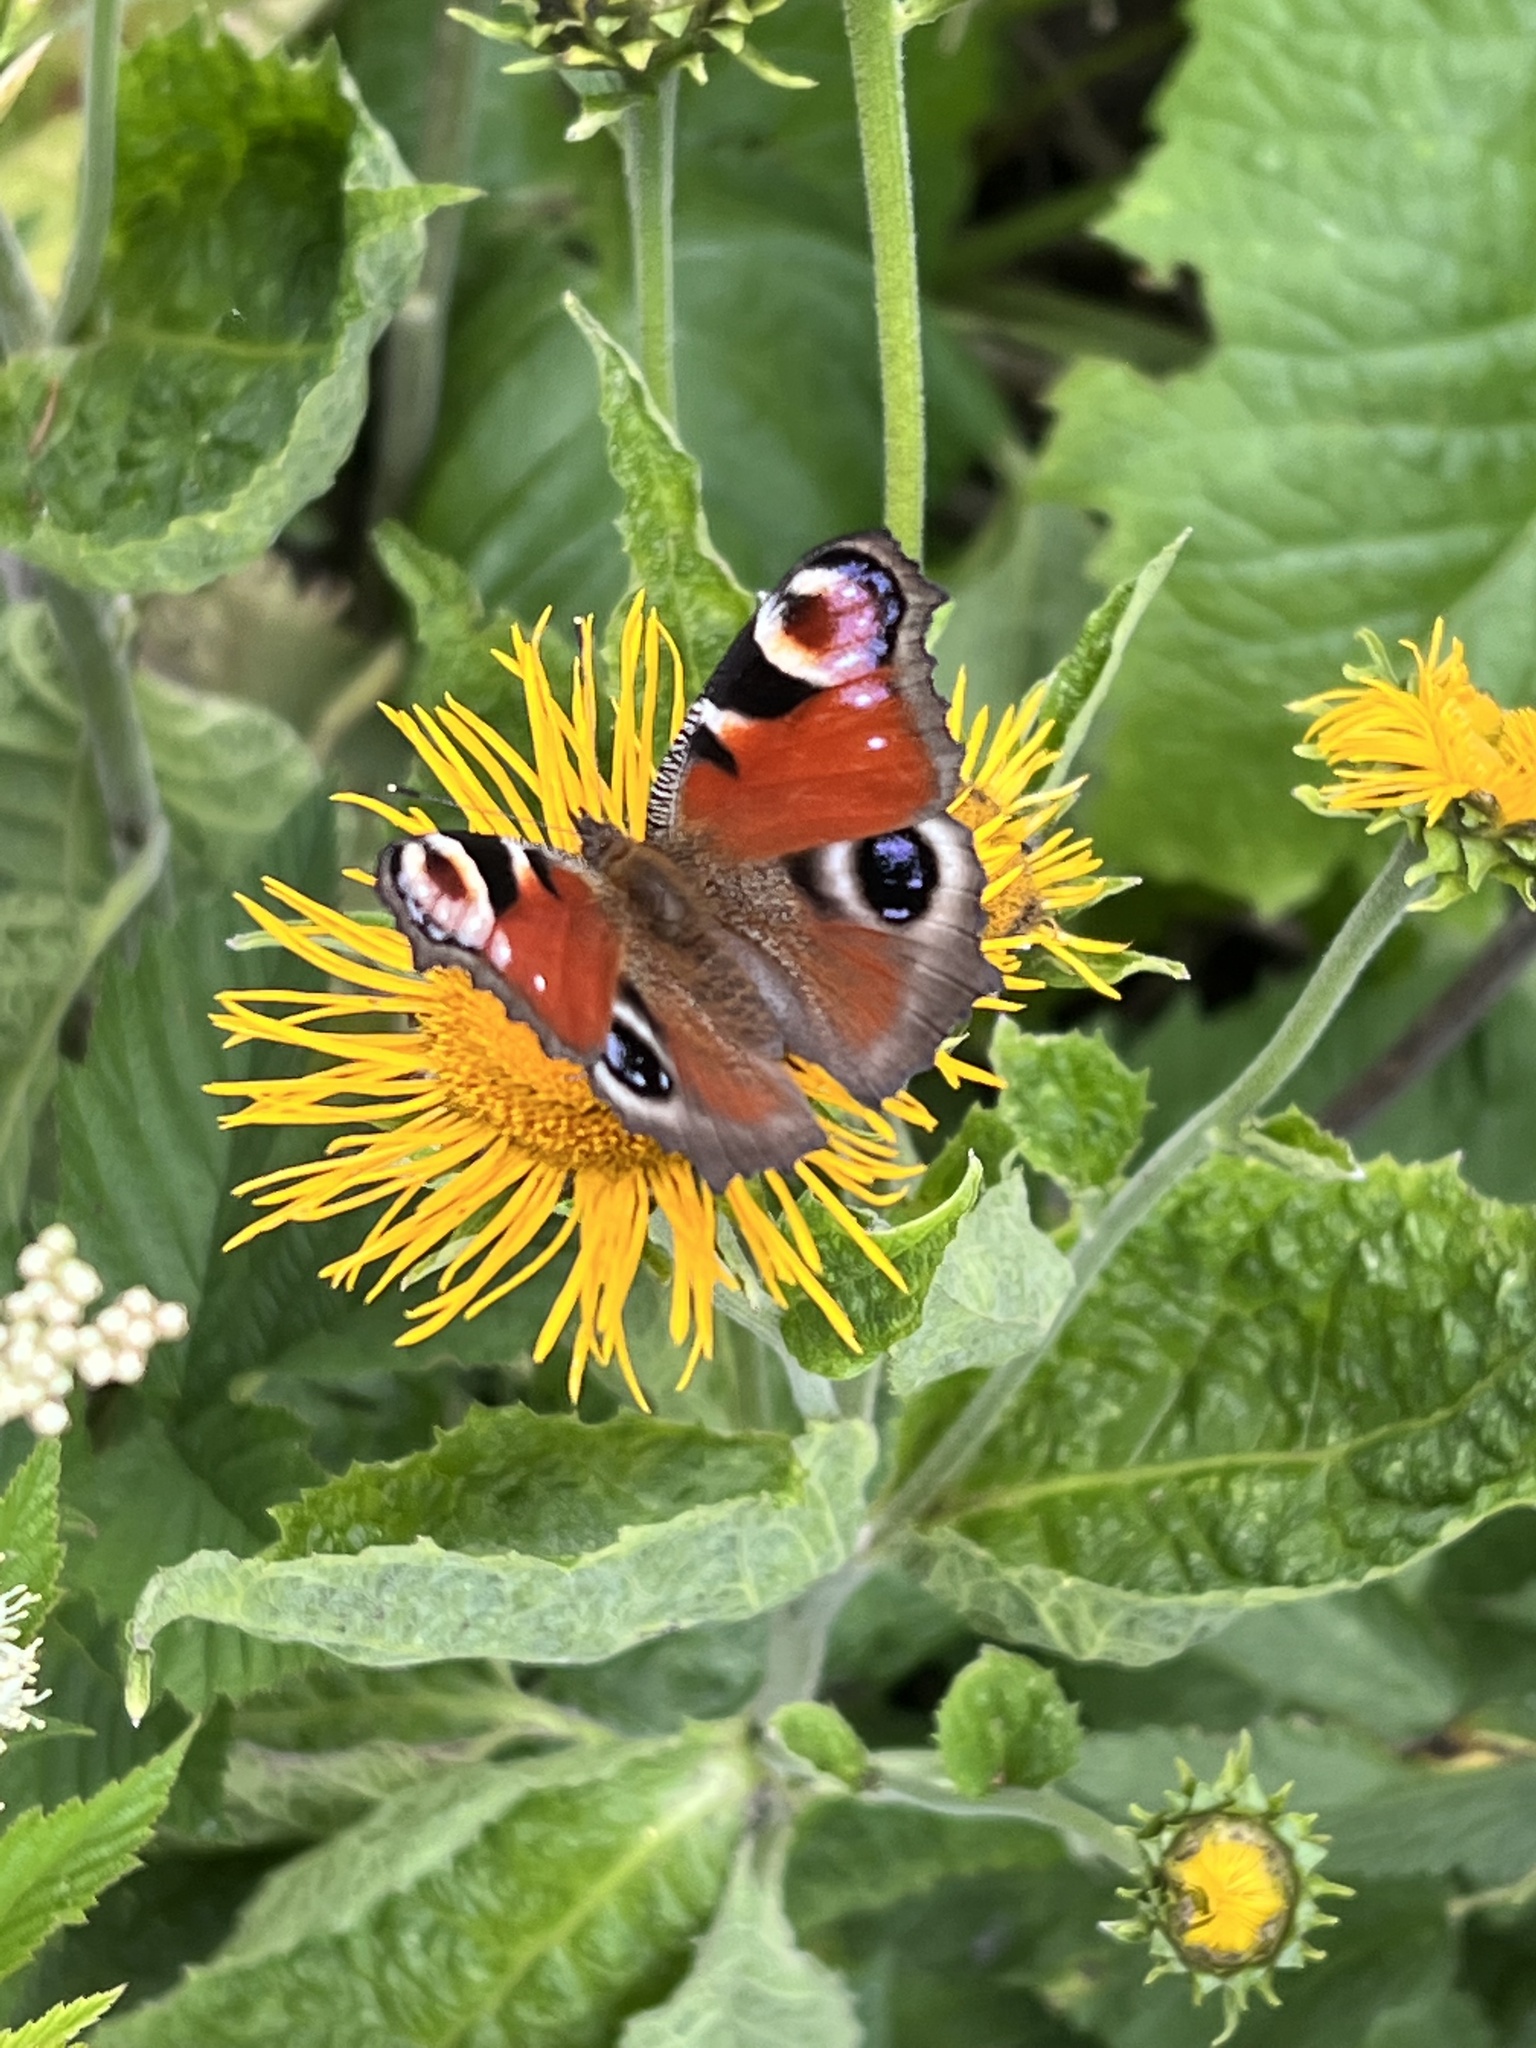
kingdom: Animalia
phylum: Arthropoda
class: Insecta
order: Lepidoptera
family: Nymphalidae
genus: Aglais
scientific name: Aglais io
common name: Peacock
